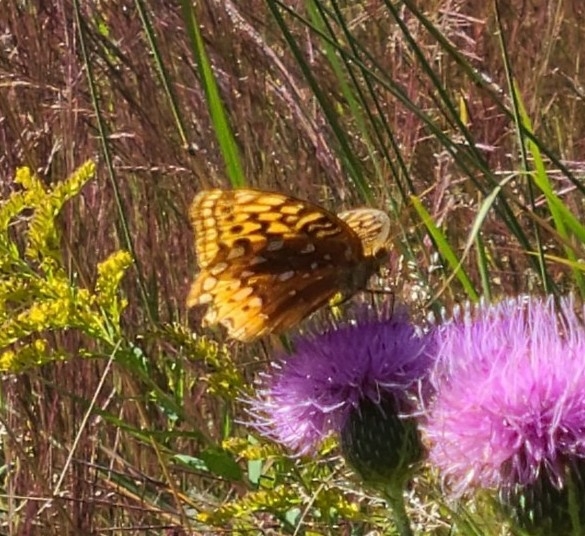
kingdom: Animalia
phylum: Arthropoda
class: Insecta
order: Lepidoptera
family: Nymphalidae
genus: Speyeria
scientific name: Speyeria cybele
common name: Great spangled fritillary
